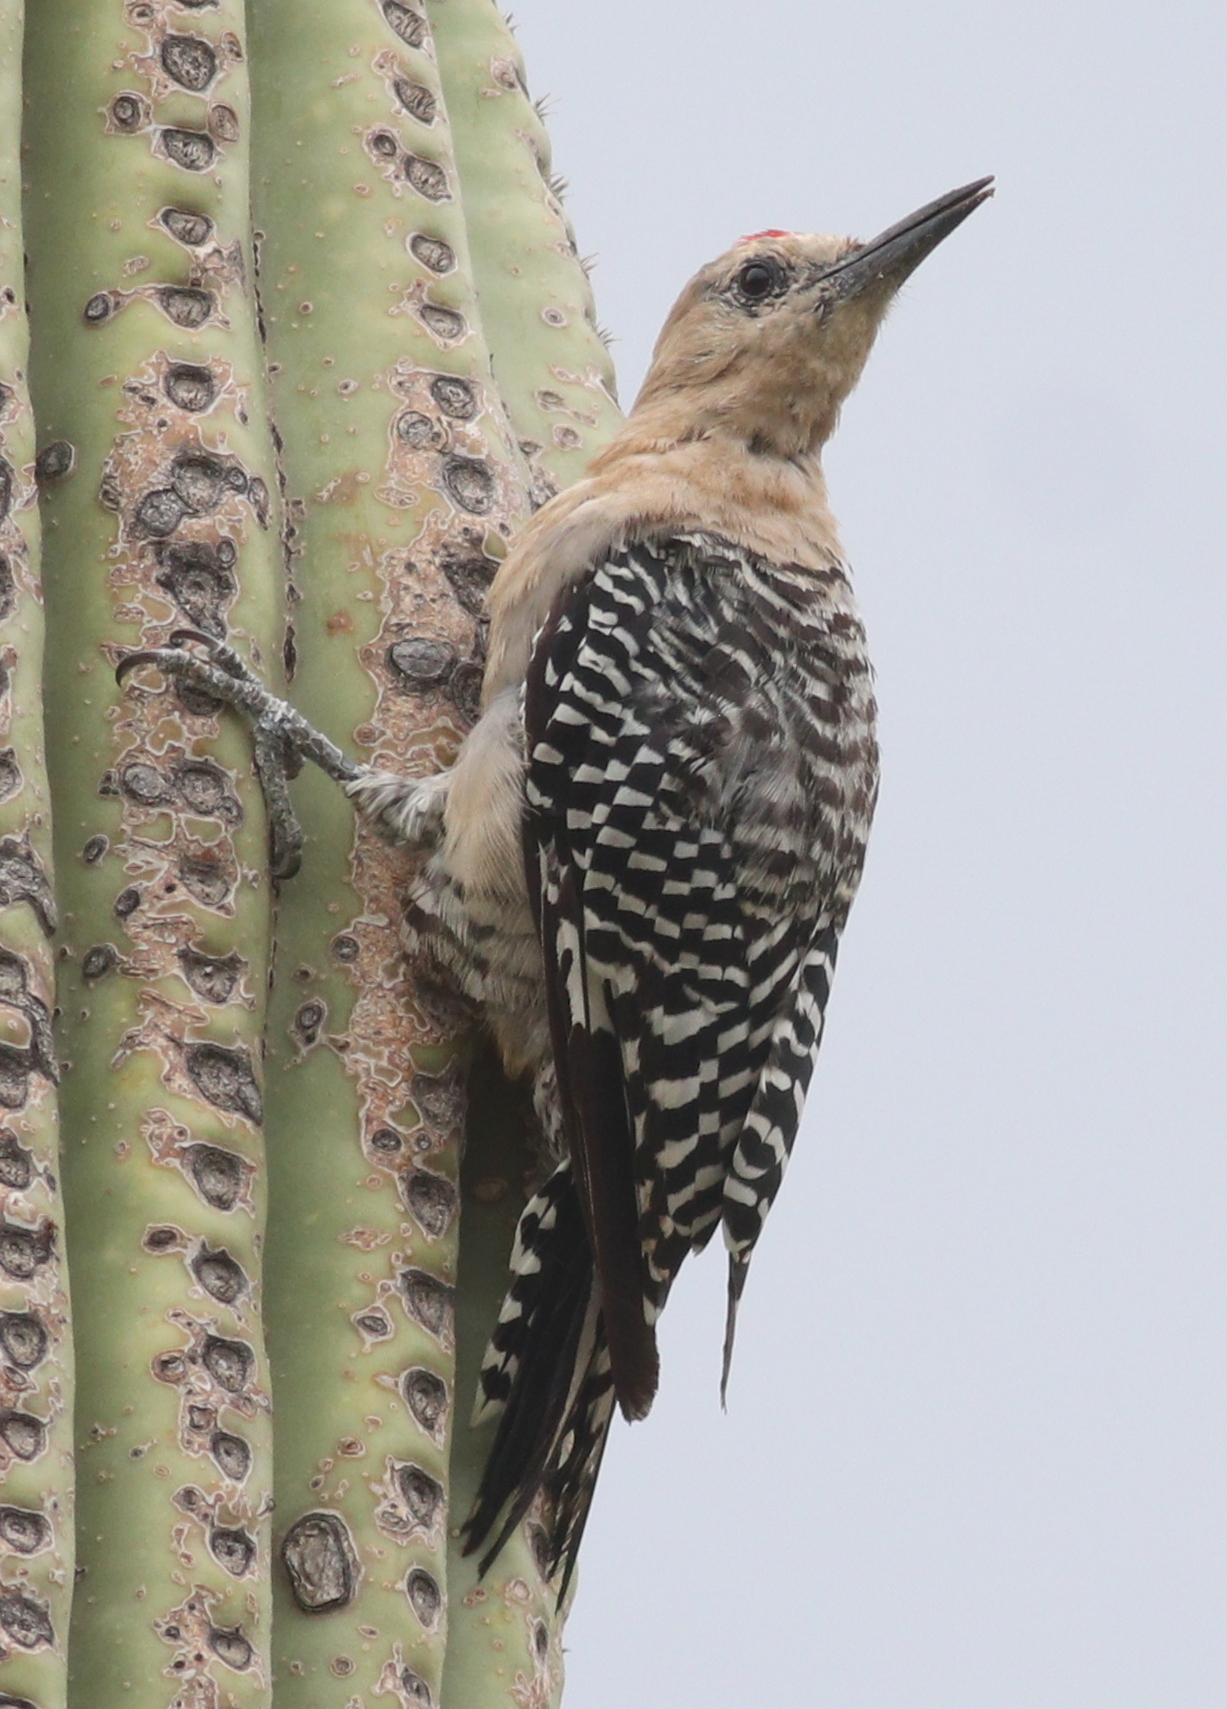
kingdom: Animalia
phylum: Chordata
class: Aves
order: Piciformes
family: Picidae
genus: Melanerpes
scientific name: Melanerpes uropygialis
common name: Gila woodpecker
